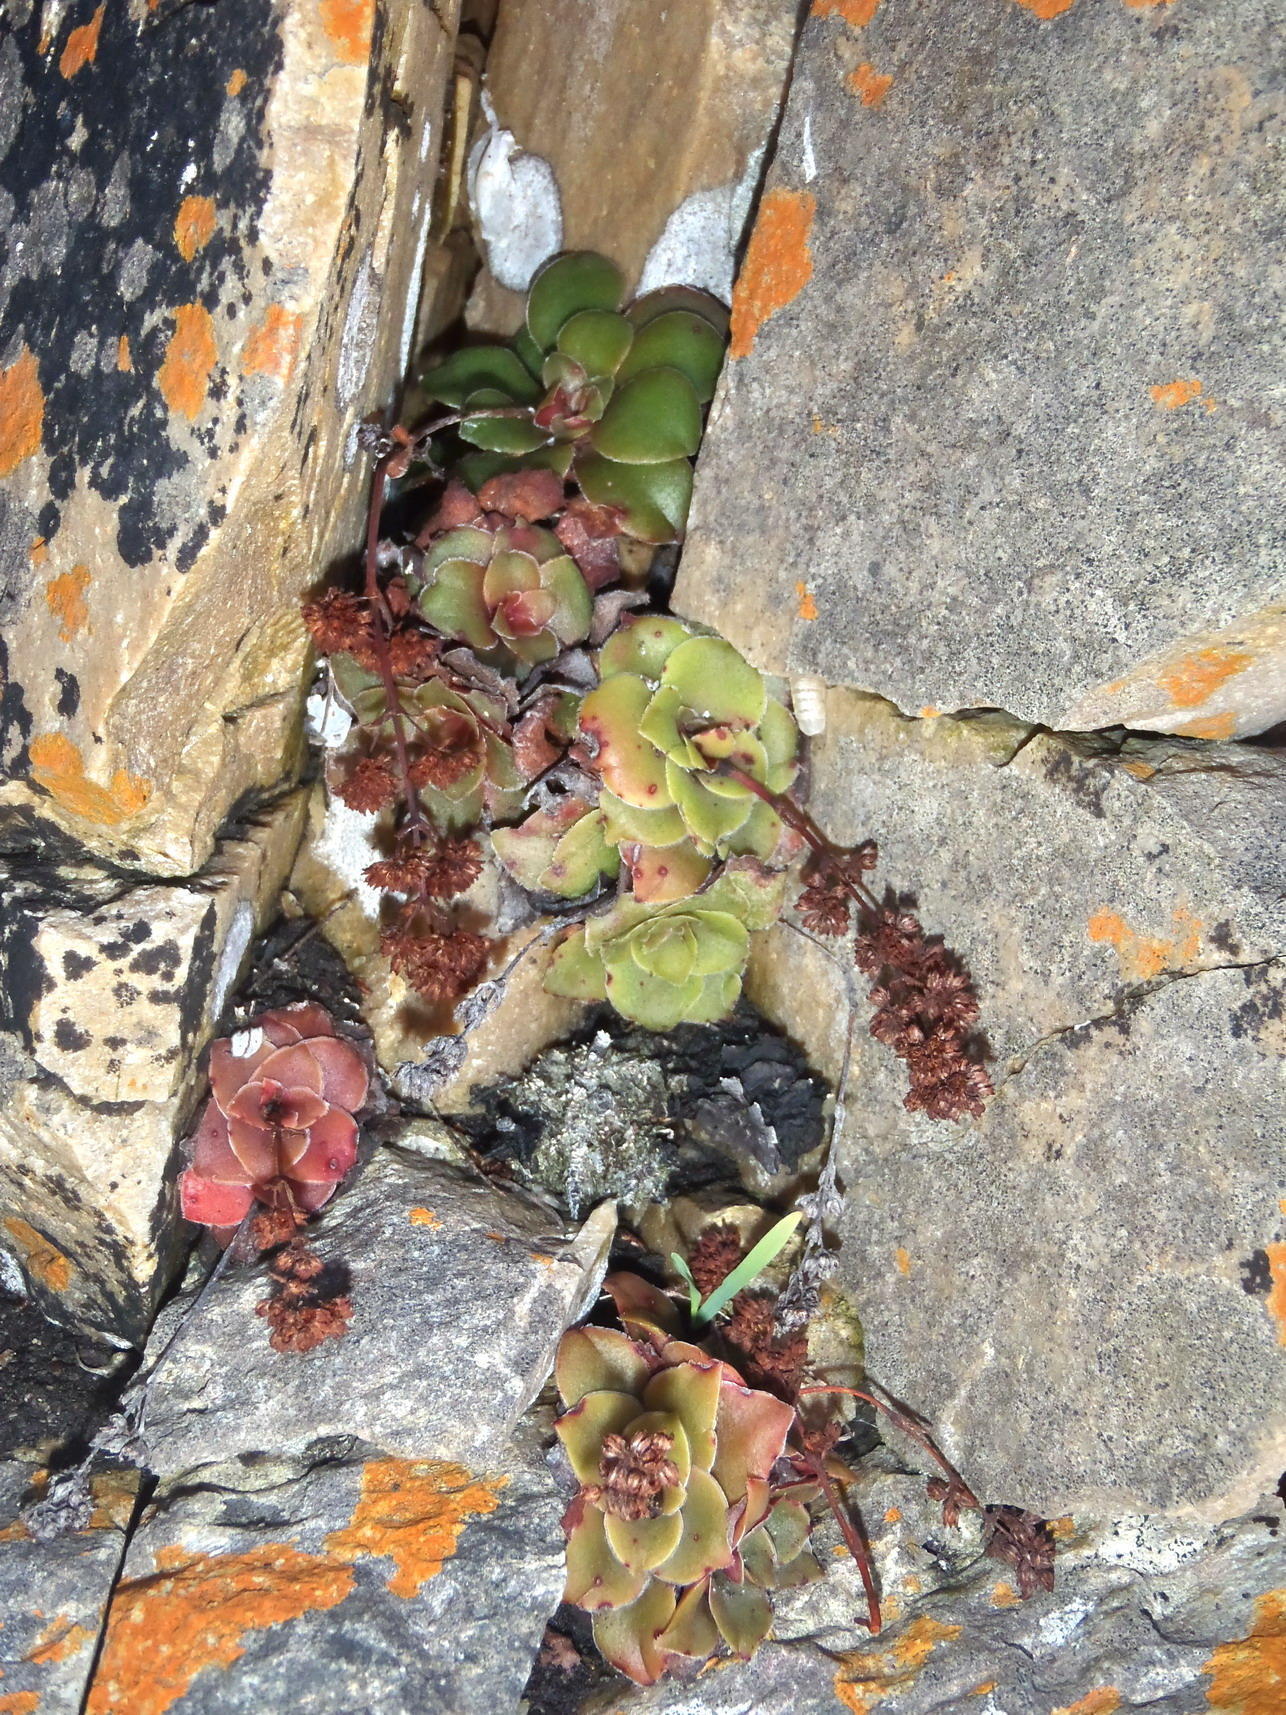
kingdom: Plantae
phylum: Tracheophyta
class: Magnoliopsida
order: Saxifragales
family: Crassulaceae
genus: Crassula
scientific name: Crassula orbicularis
